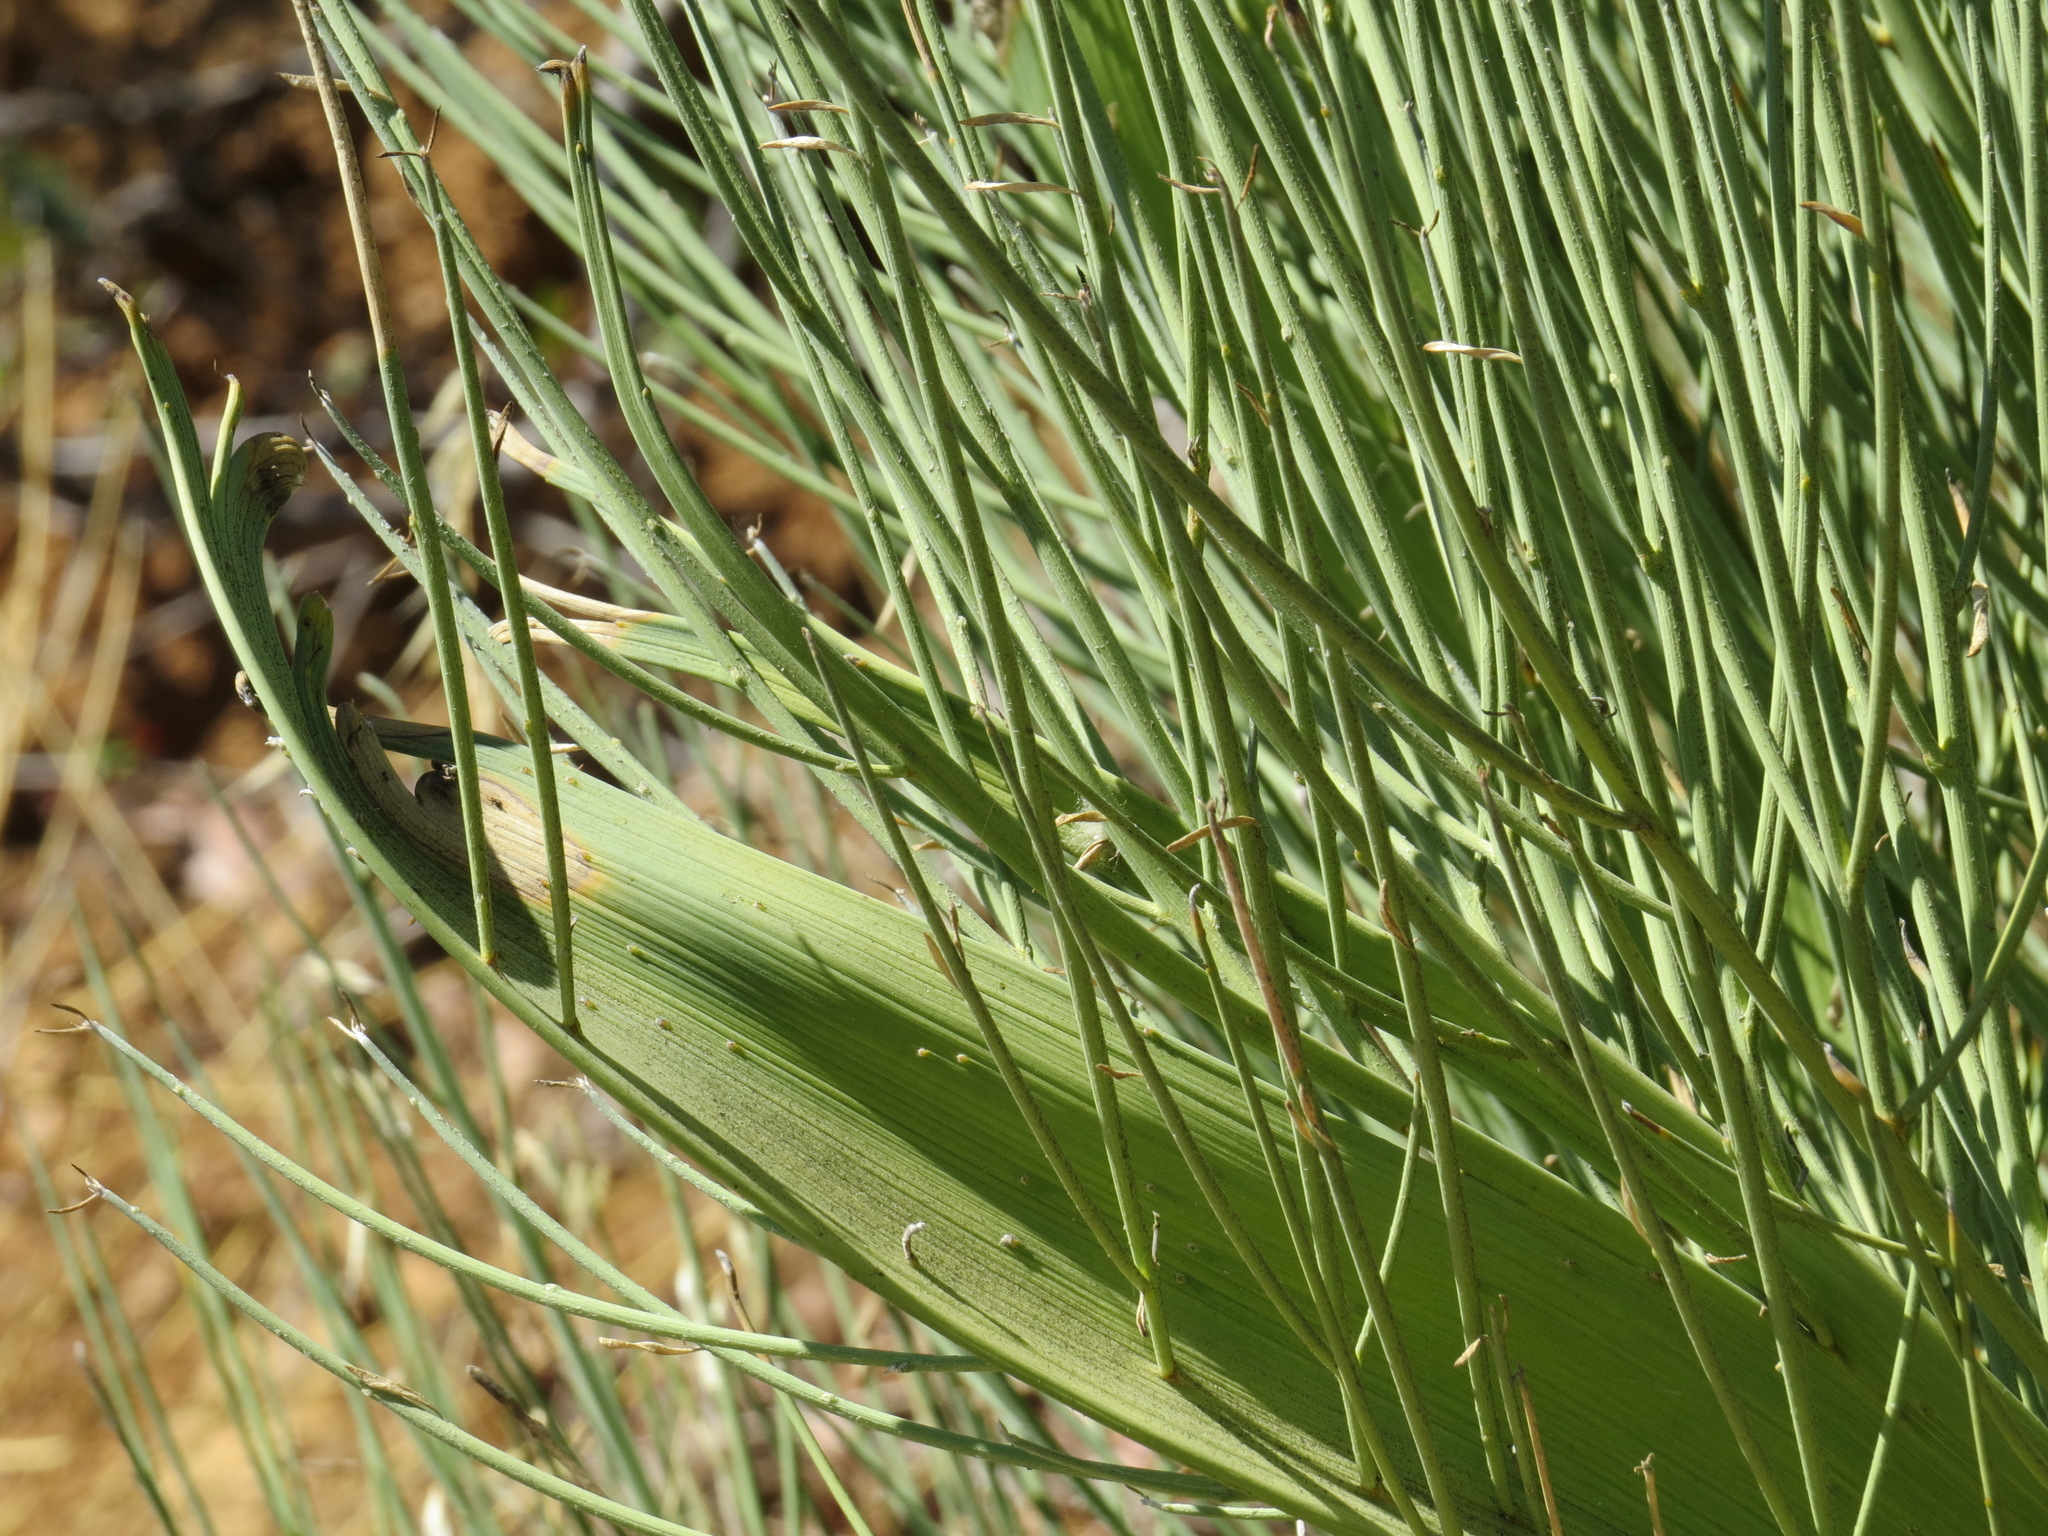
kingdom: Plantae
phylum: Tracheophyta
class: Magnoliopsida
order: Fabales
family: Fabaceae
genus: Spartium
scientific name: Spartium junceum
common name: Spanish broom
